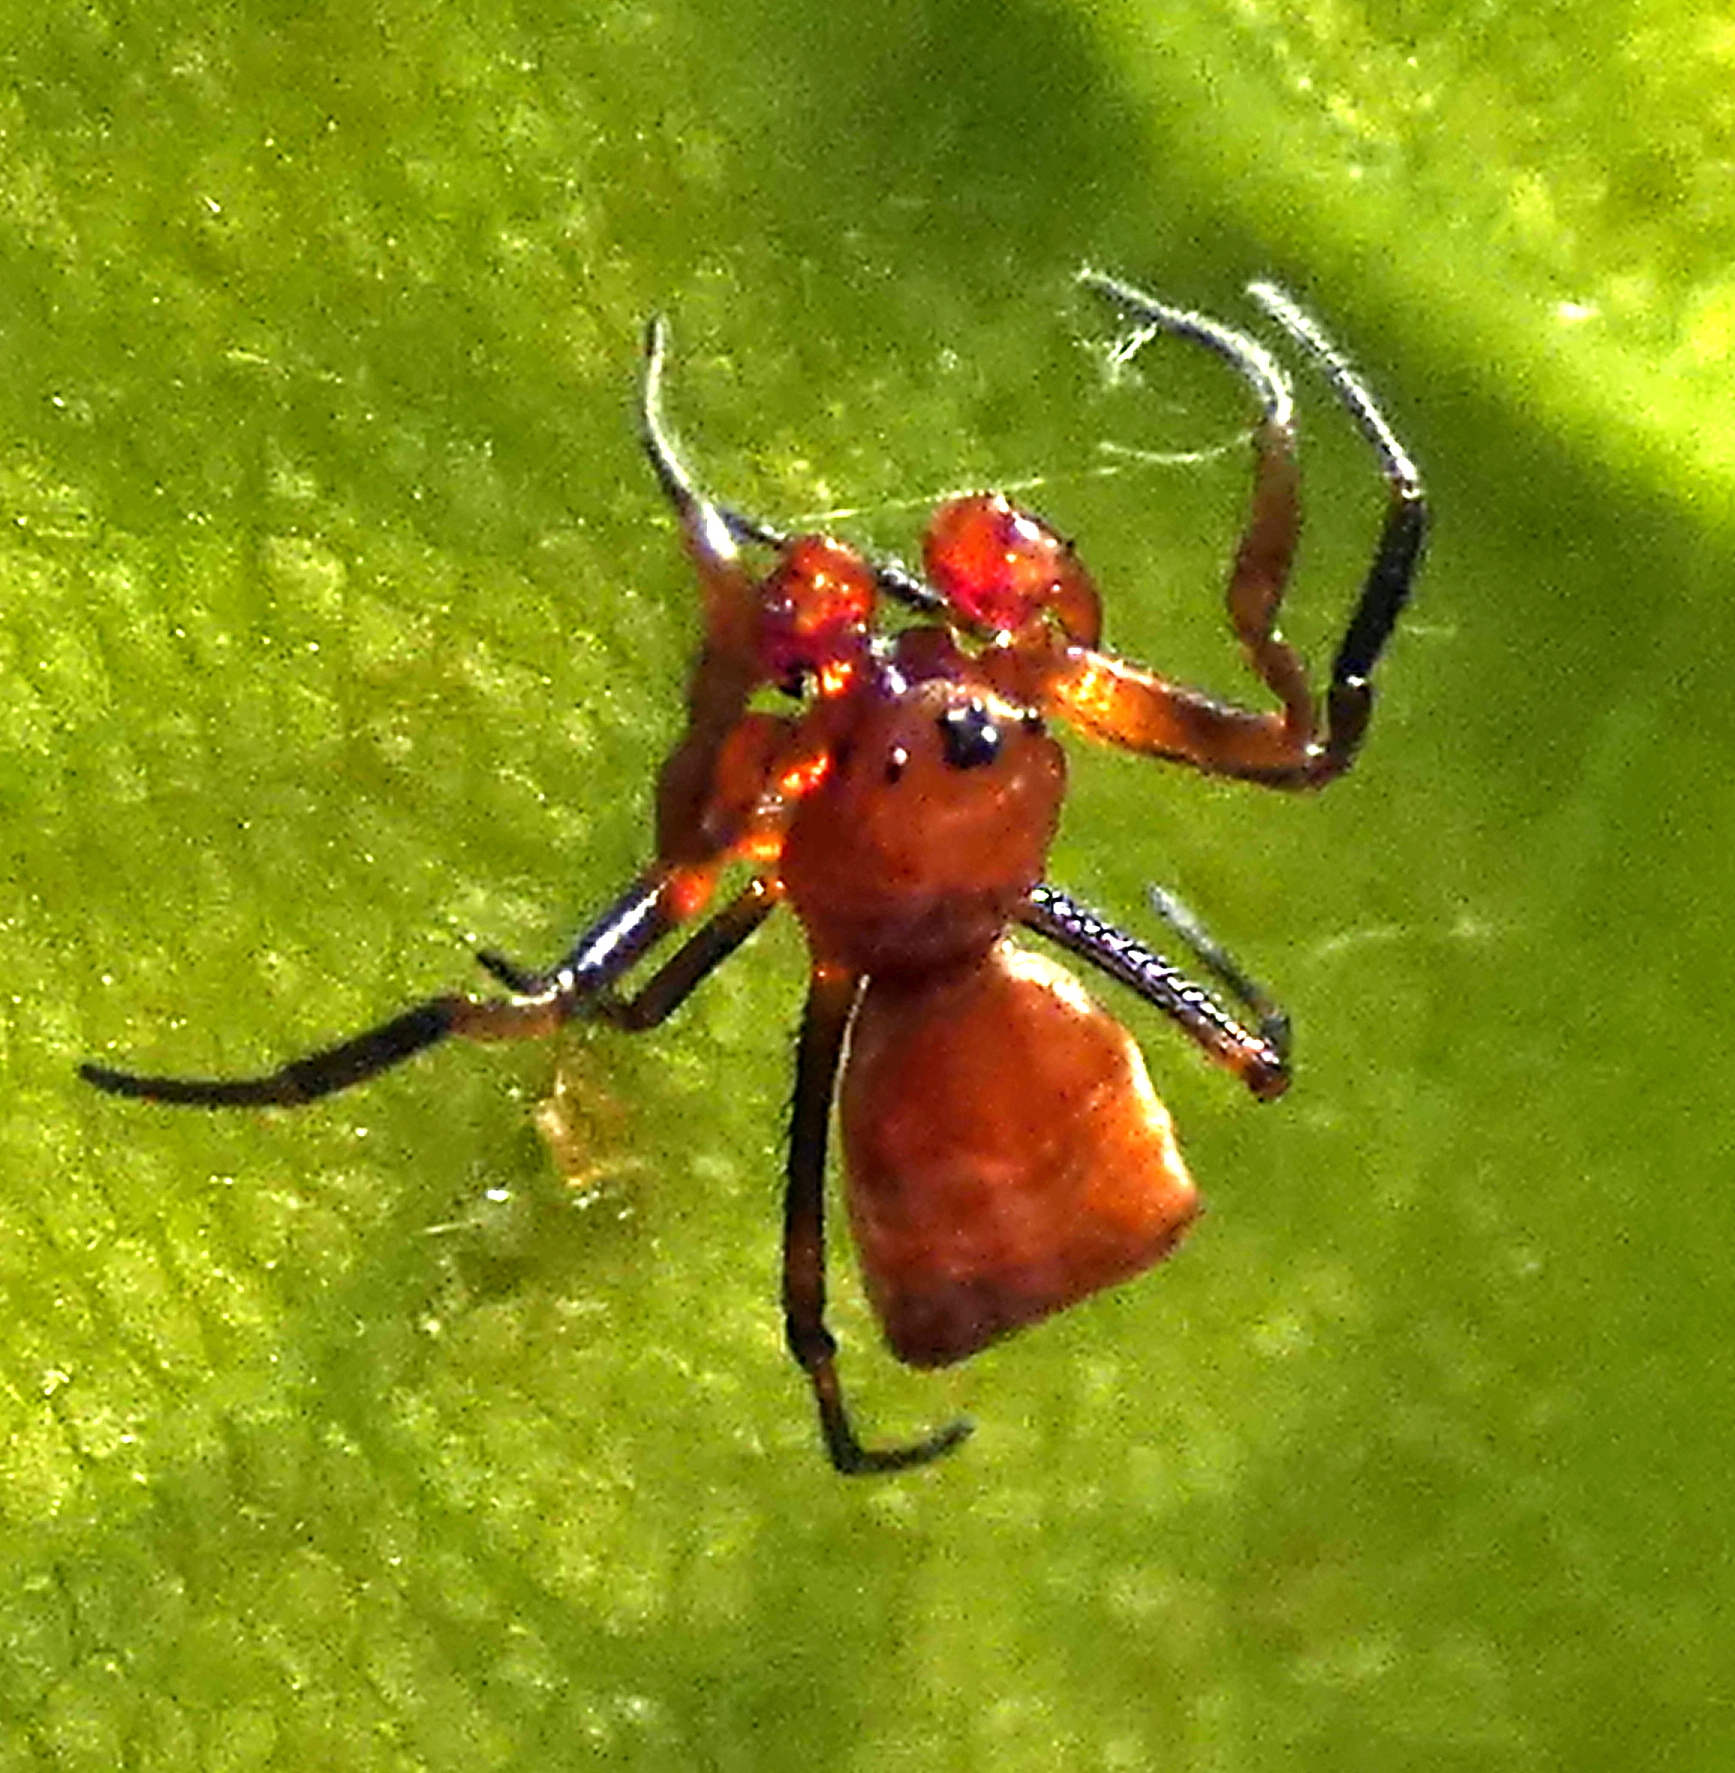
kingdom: Animalia
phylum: Arthropoda
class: Arachnida
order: Araneae
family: Araneidae
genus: Micrathena
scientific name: Micrathena picta
